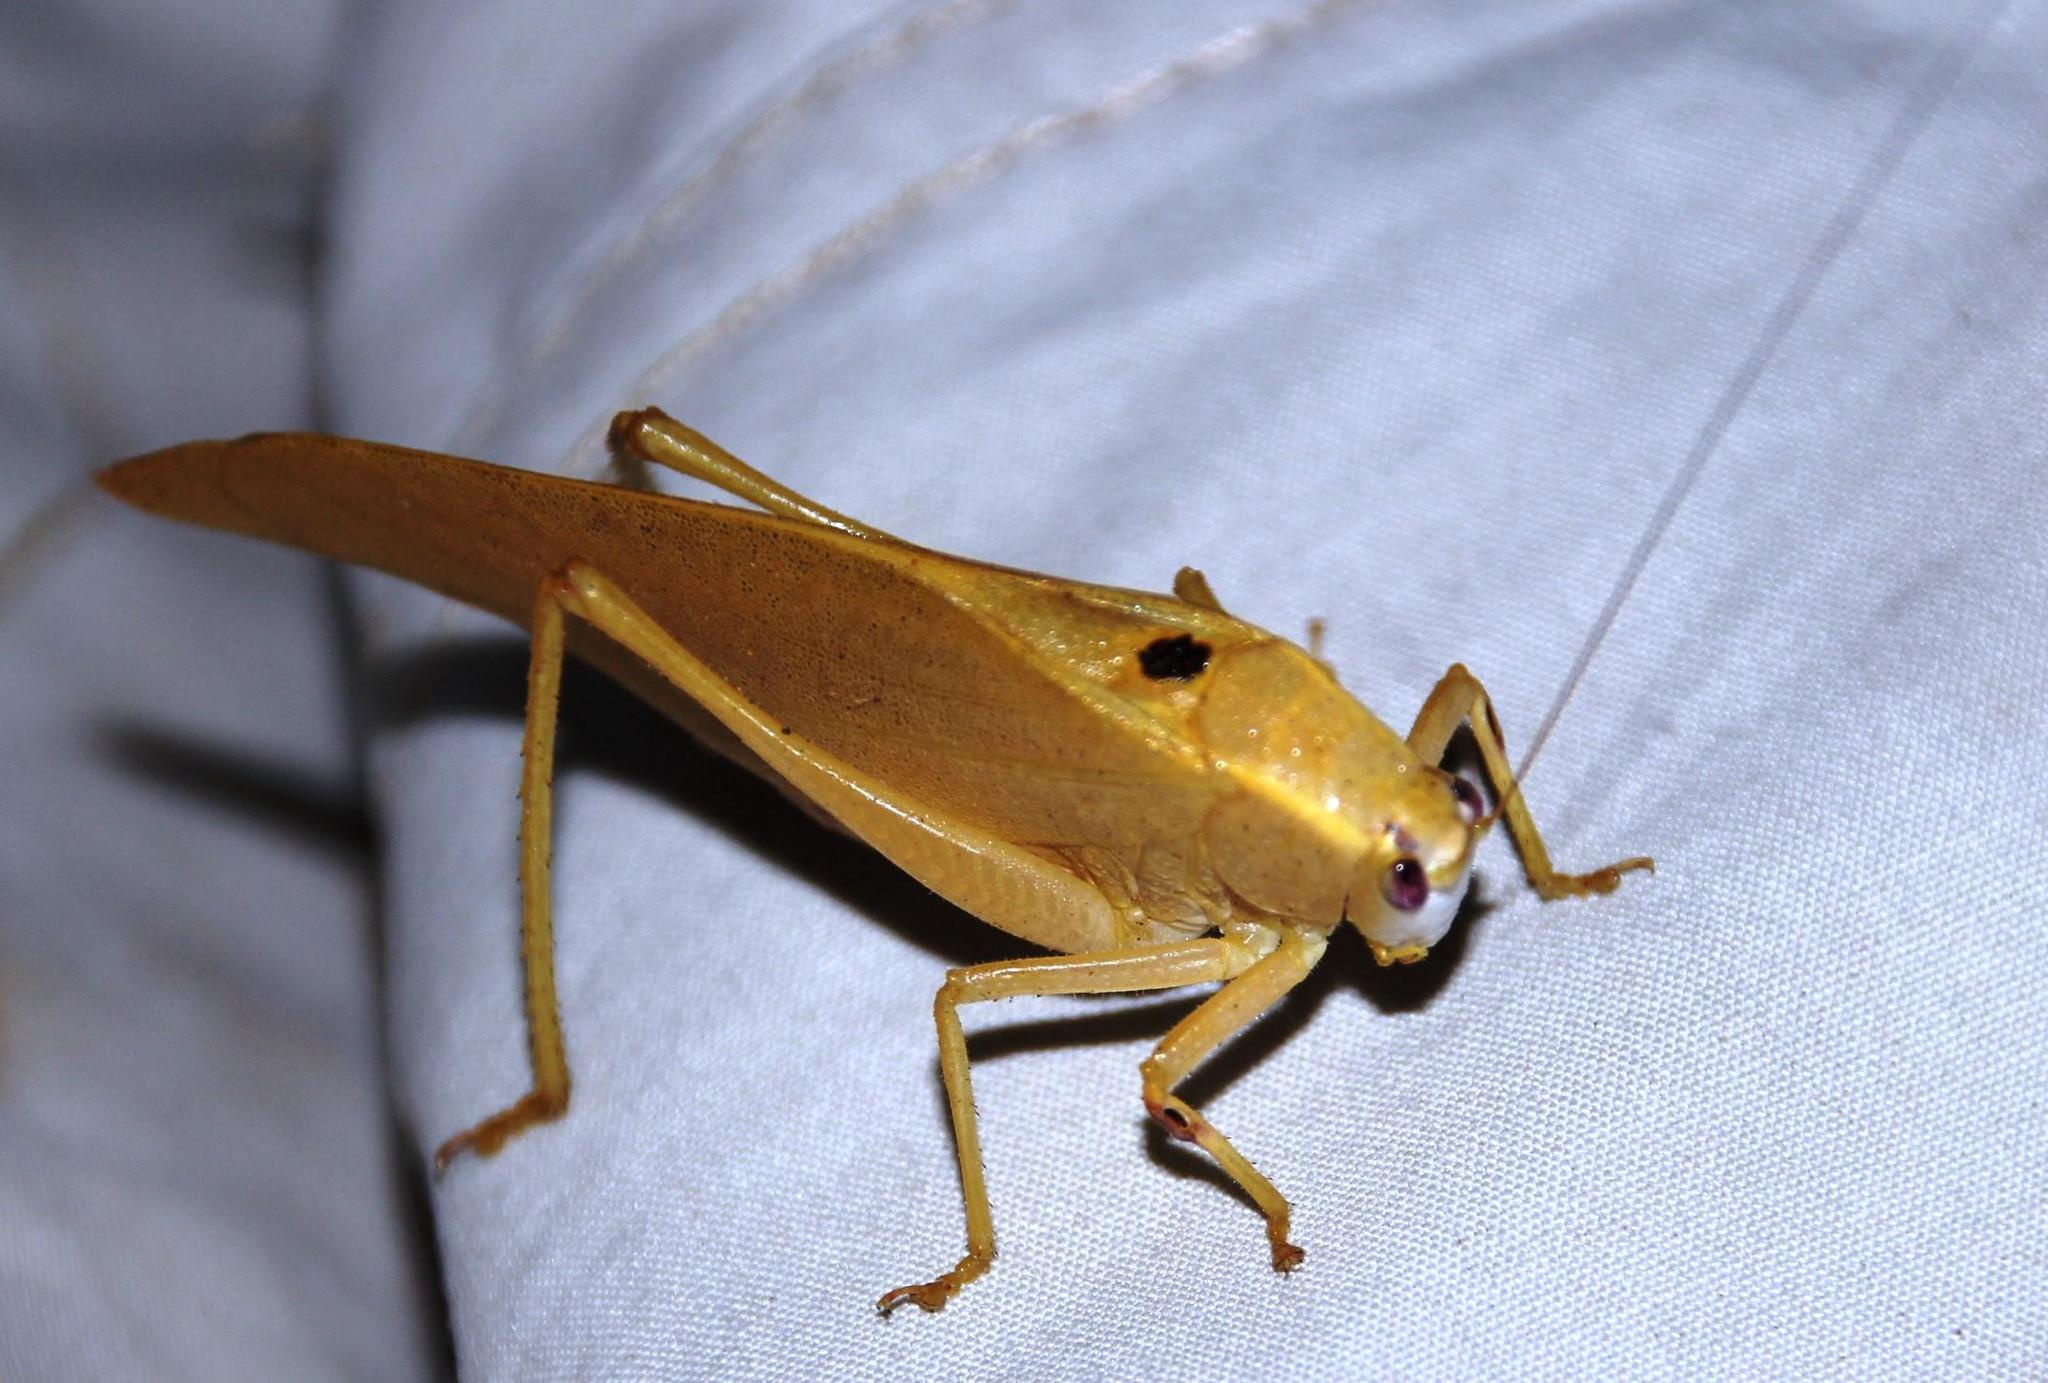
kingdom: Animalia
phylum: Arthropoda
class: Insecta
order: Orthoptera
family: Tettigoniidae
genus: Plangia
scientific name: Plangia unimaculata
